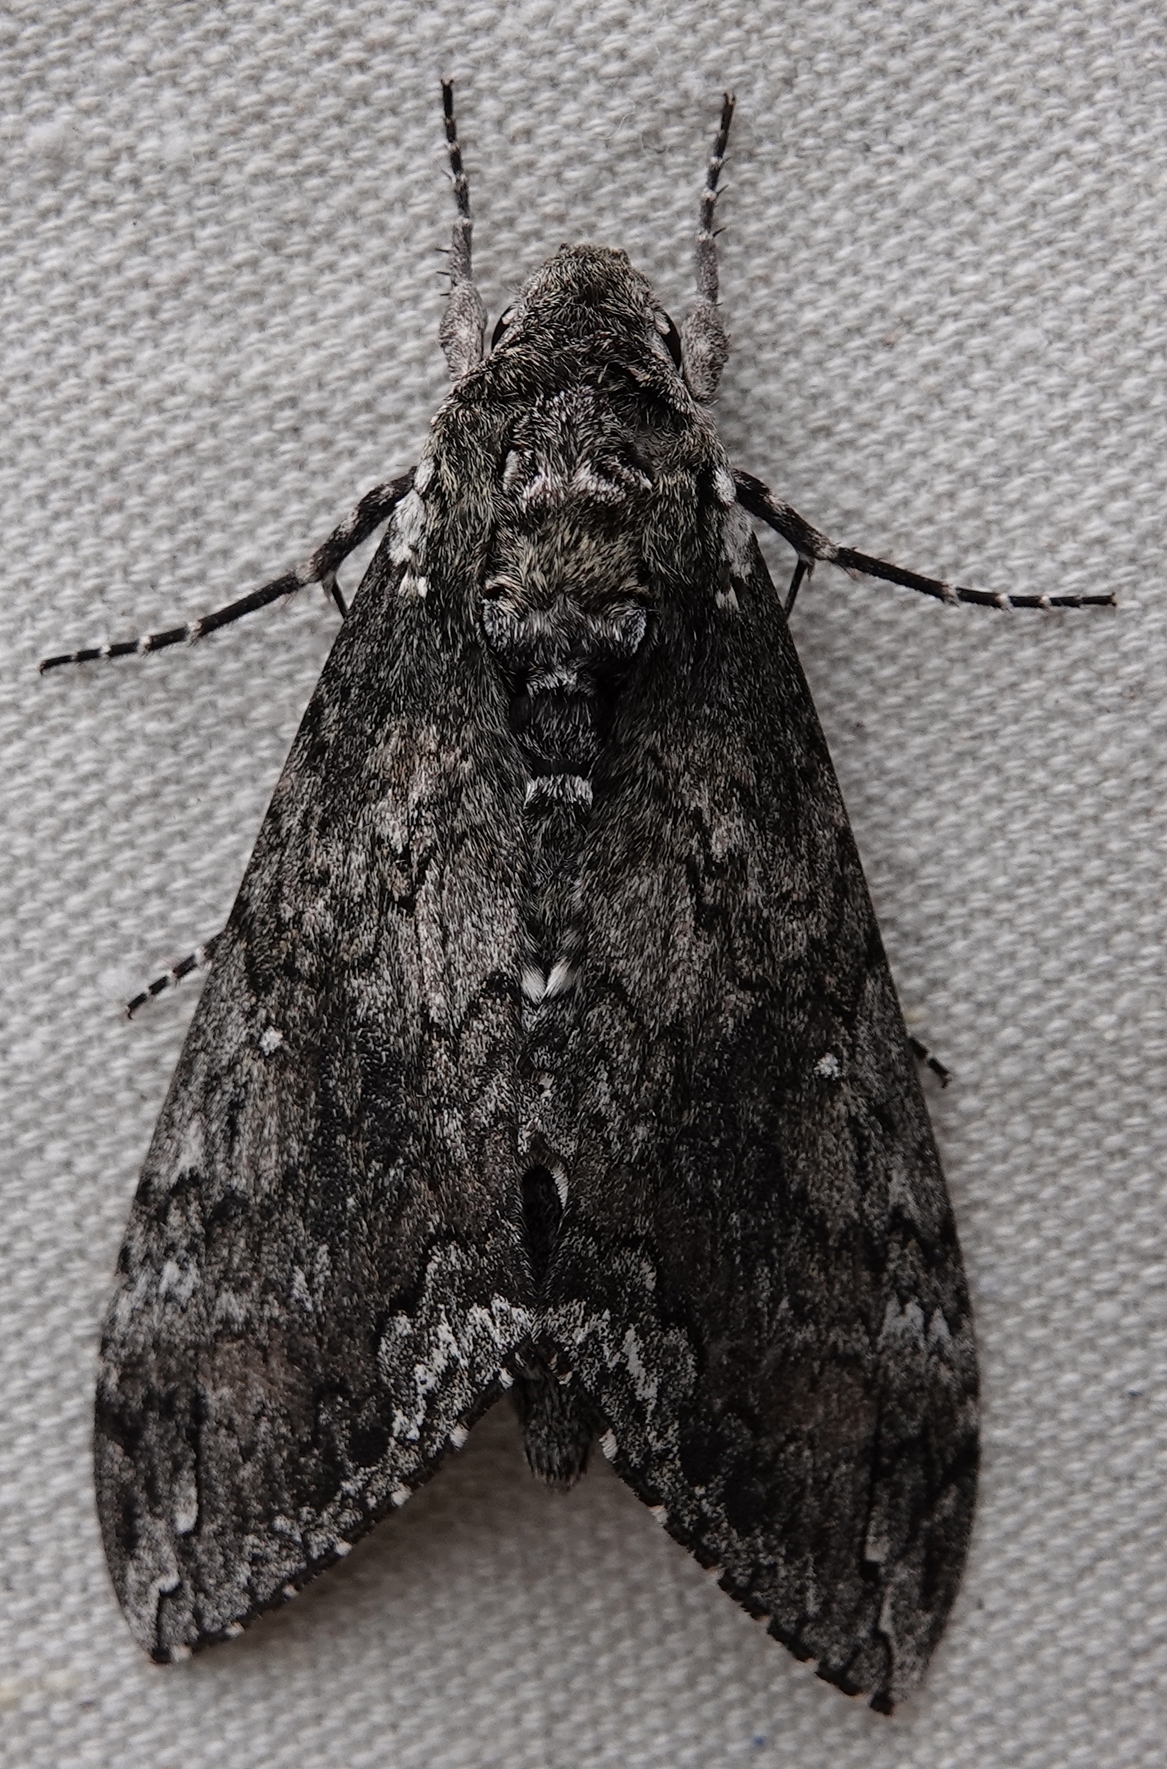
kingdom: Animalia
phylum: Arthropoda
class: Insecta
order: Lepidoptera
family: Sphingidae
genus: Manduca
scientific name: Manduca sexta
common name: Carolina sphinx
